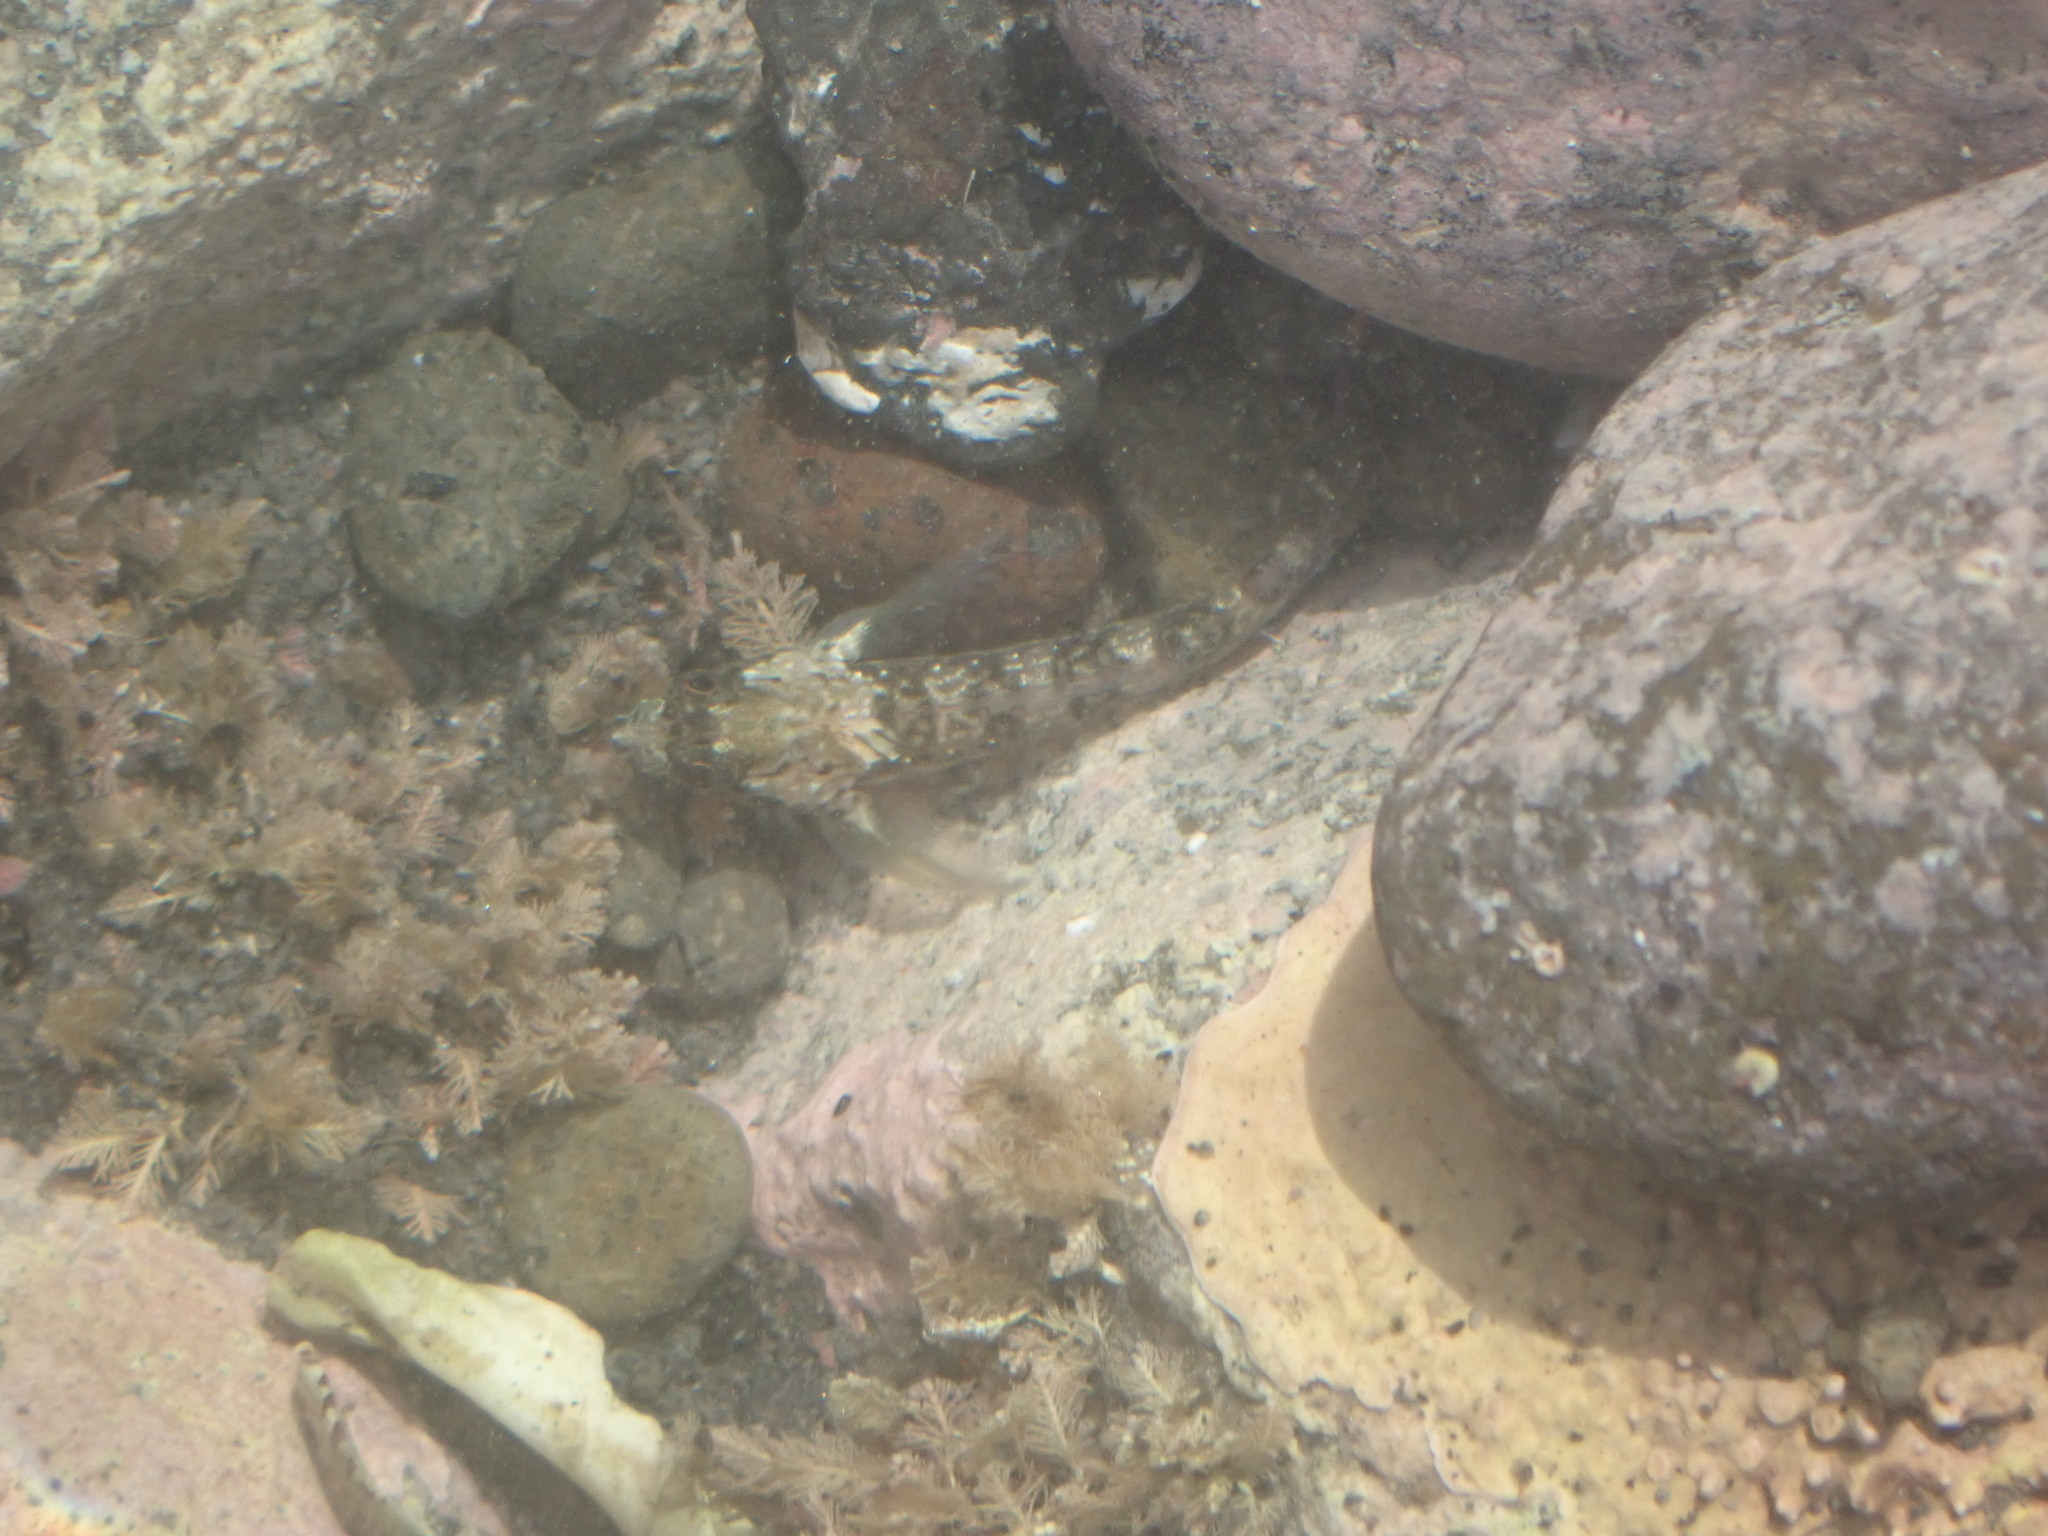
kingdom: Animalia
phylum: Chordata
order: Perciformes
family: Tripterygiidae
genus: Forsterygion
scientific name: Forsterygion lapillum
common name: Common triplefin
